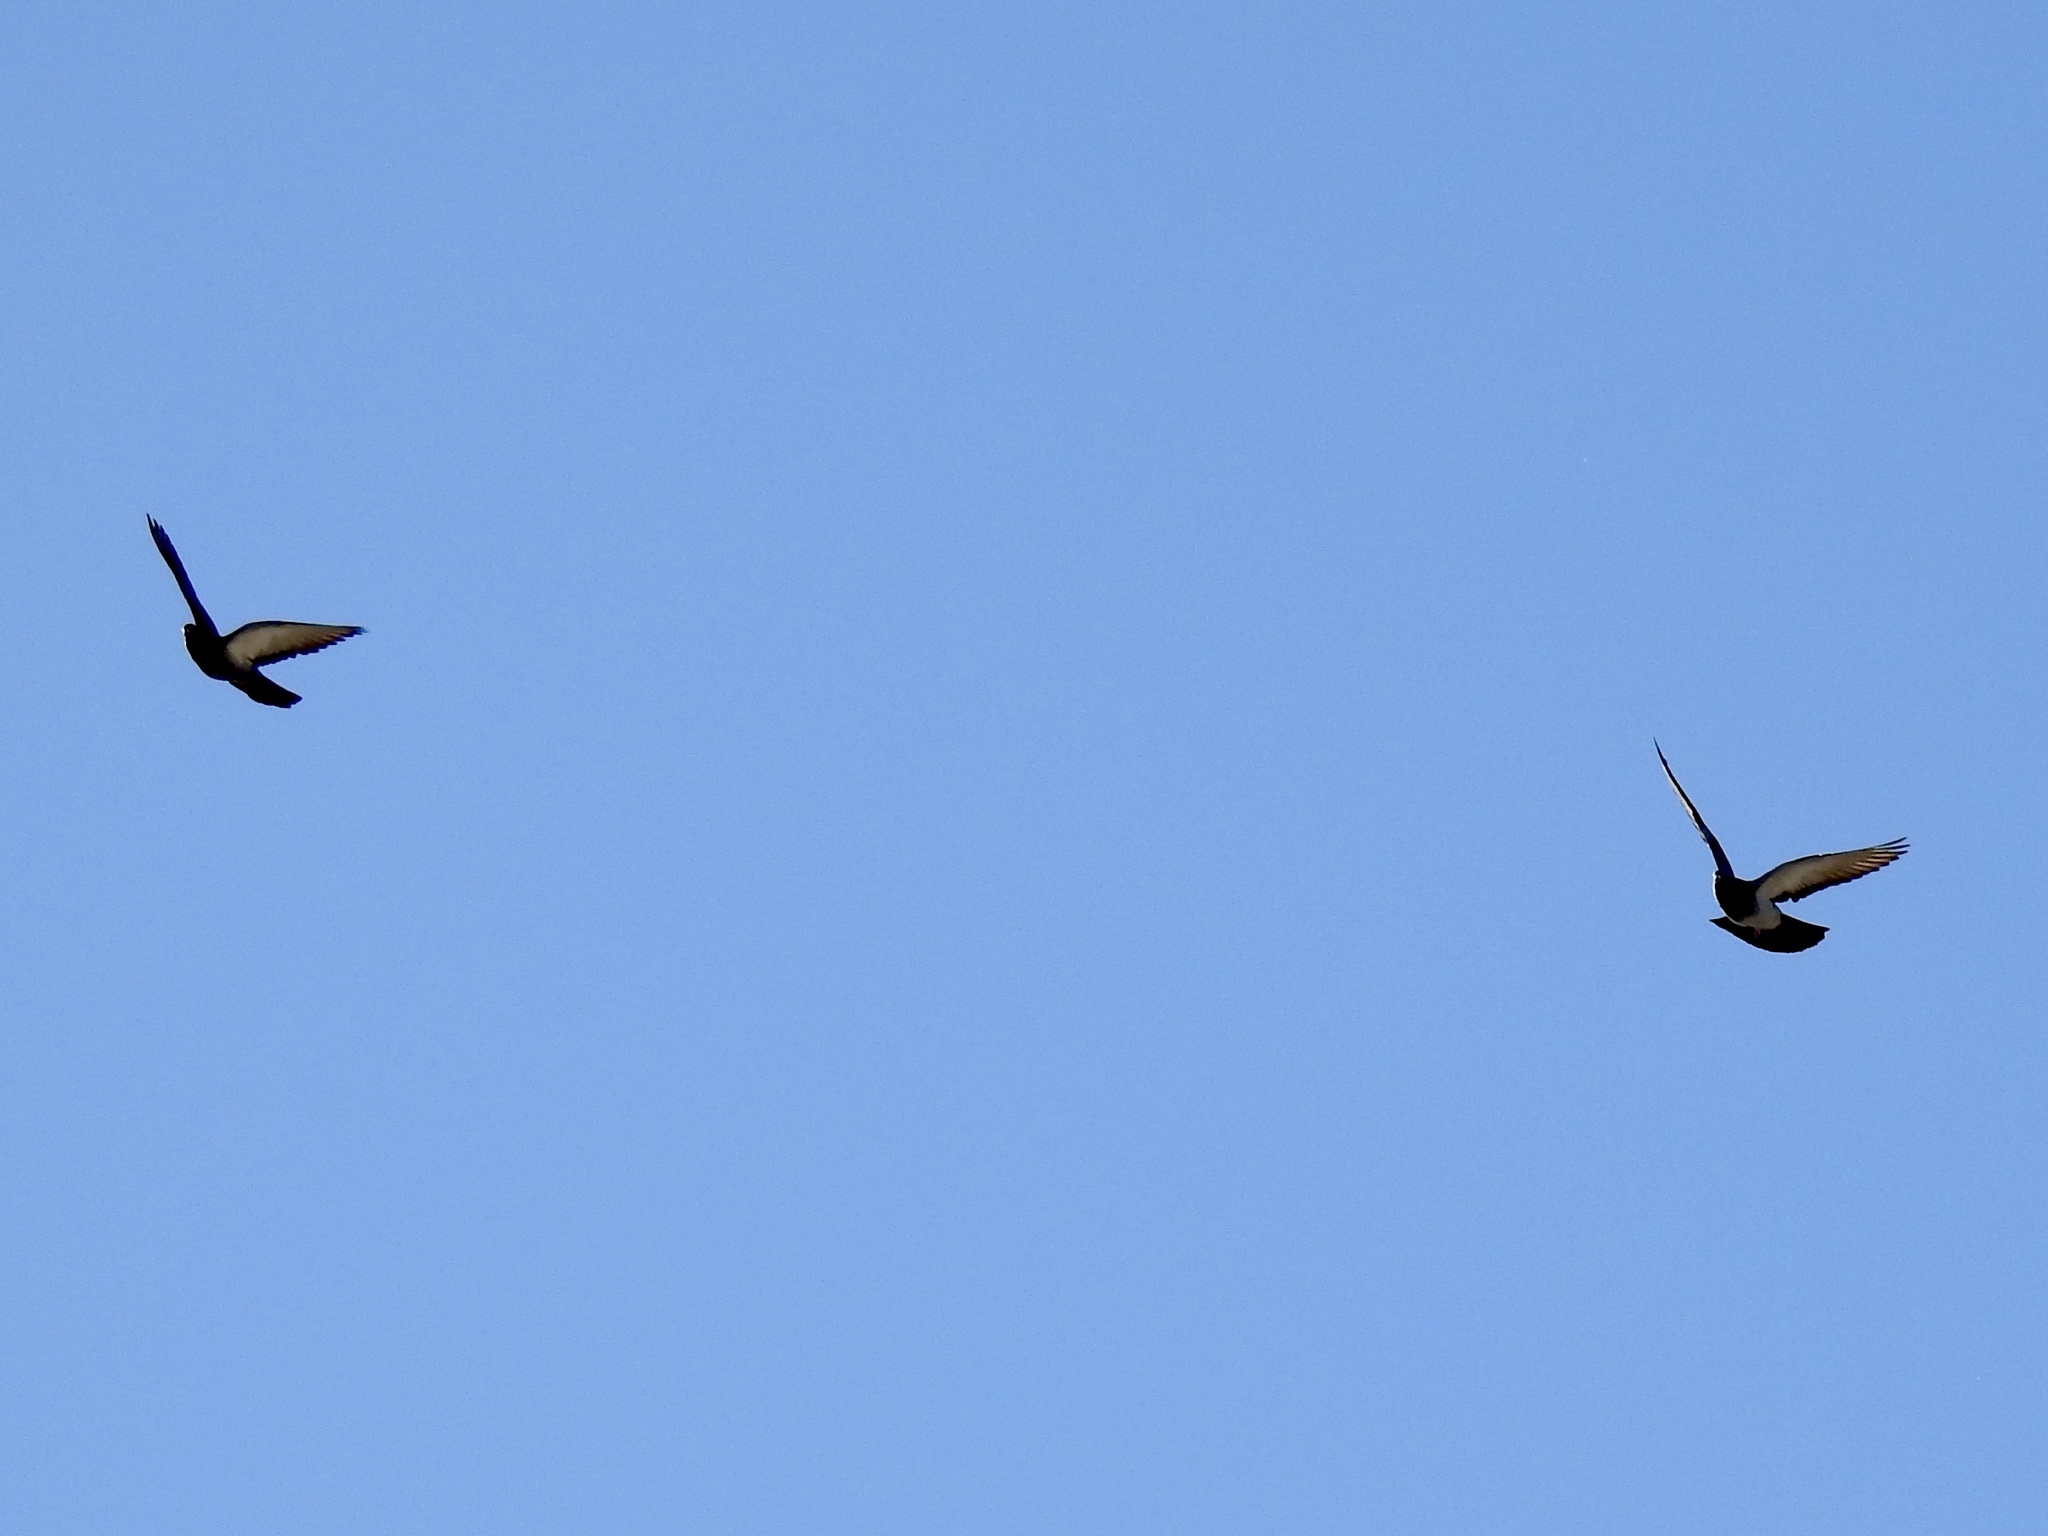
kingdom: Animalia
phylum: Chordata
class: Aves
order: Columbiformes
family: Columbidae
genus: Columba
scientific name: Columba livia
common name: Rock pigeon
